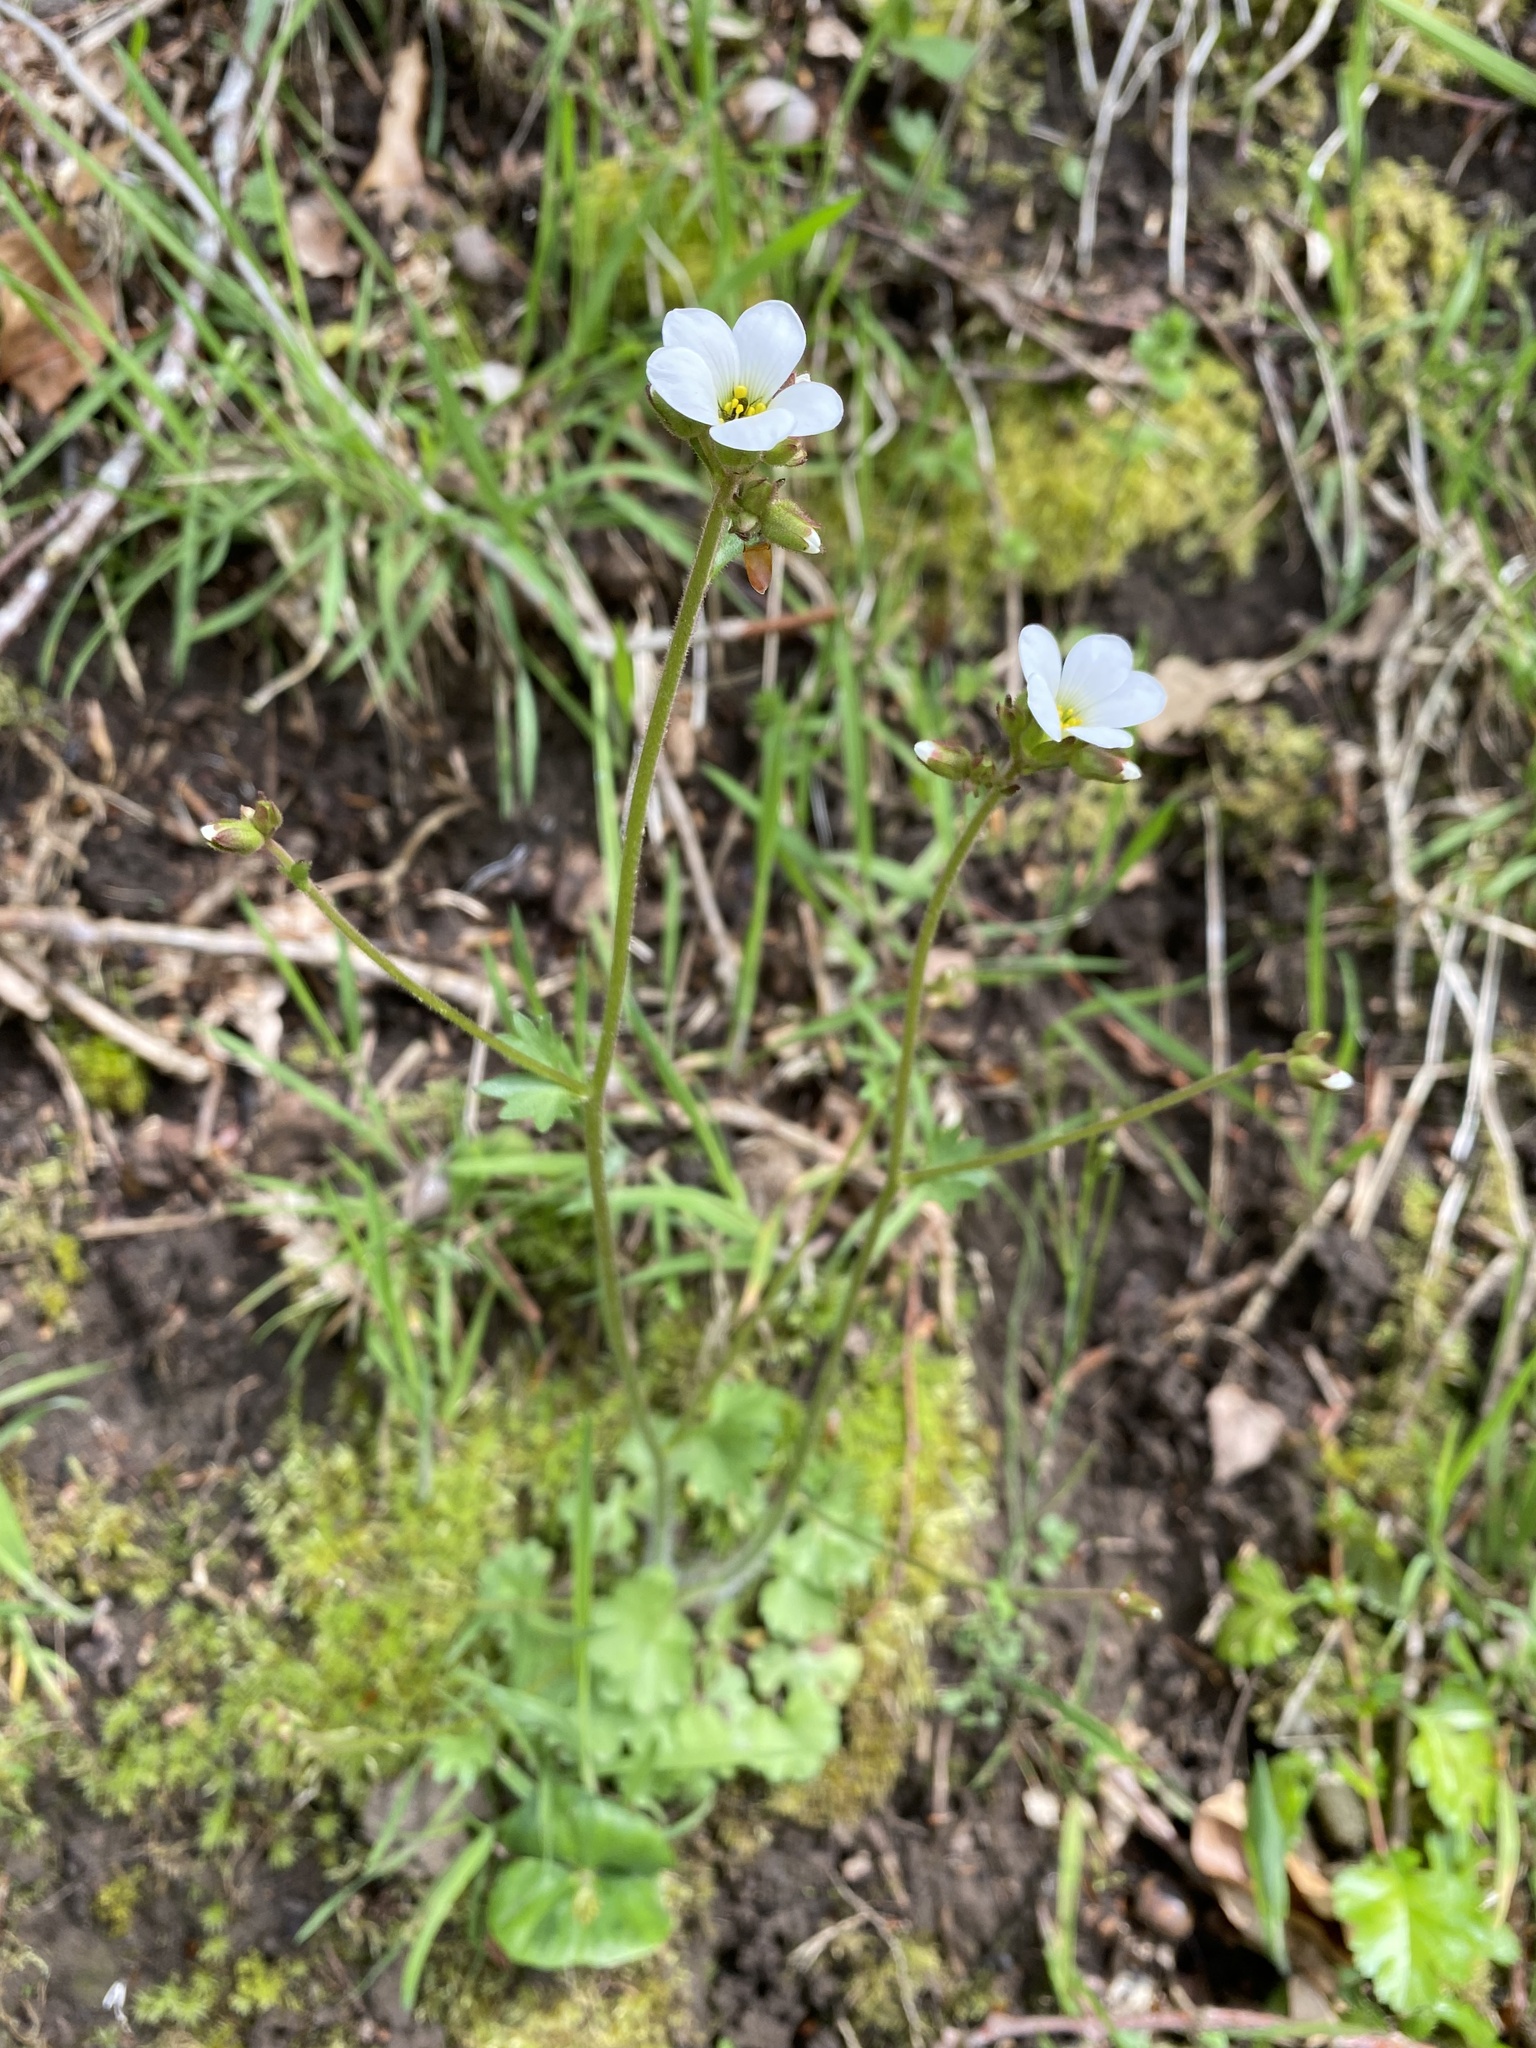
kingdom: Plantae
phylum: Tracheophyta
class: Magnoliopsida
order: Saxifragales
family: Saxifragaceae
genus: Saxifraga
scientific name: Saxifraga granulata
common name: Meadow saxifrage
